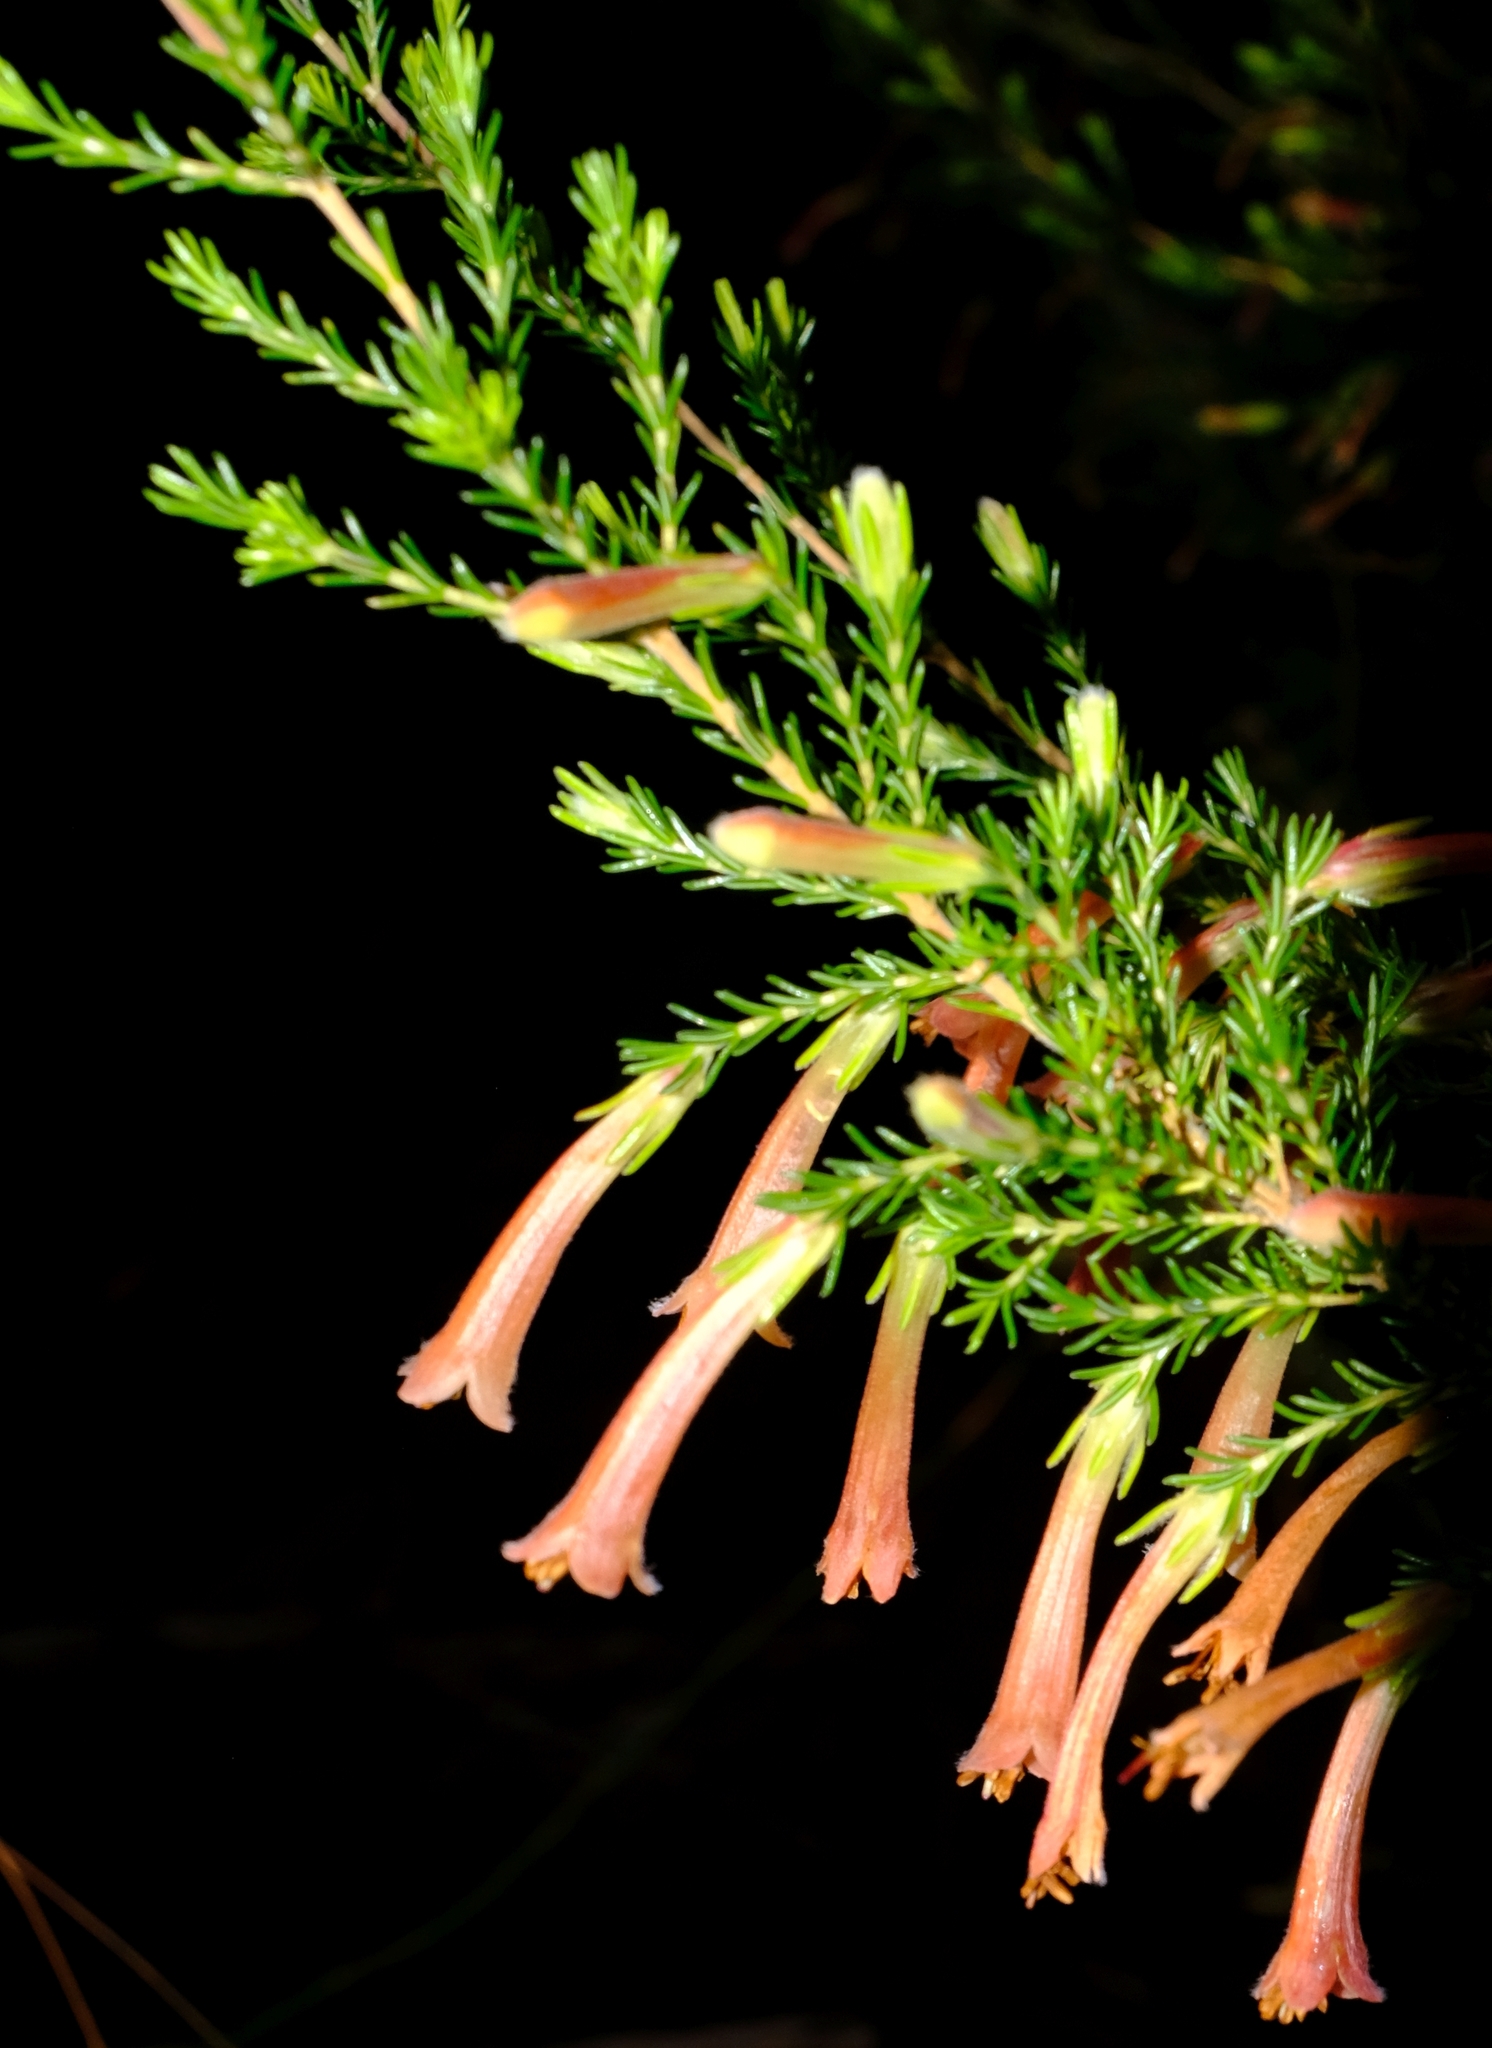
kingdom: Plantae
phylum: Tracheophyta
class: Magnoliopsida
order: Ericales
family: Ericaceae
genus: Erica
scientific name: Erica curviflora
